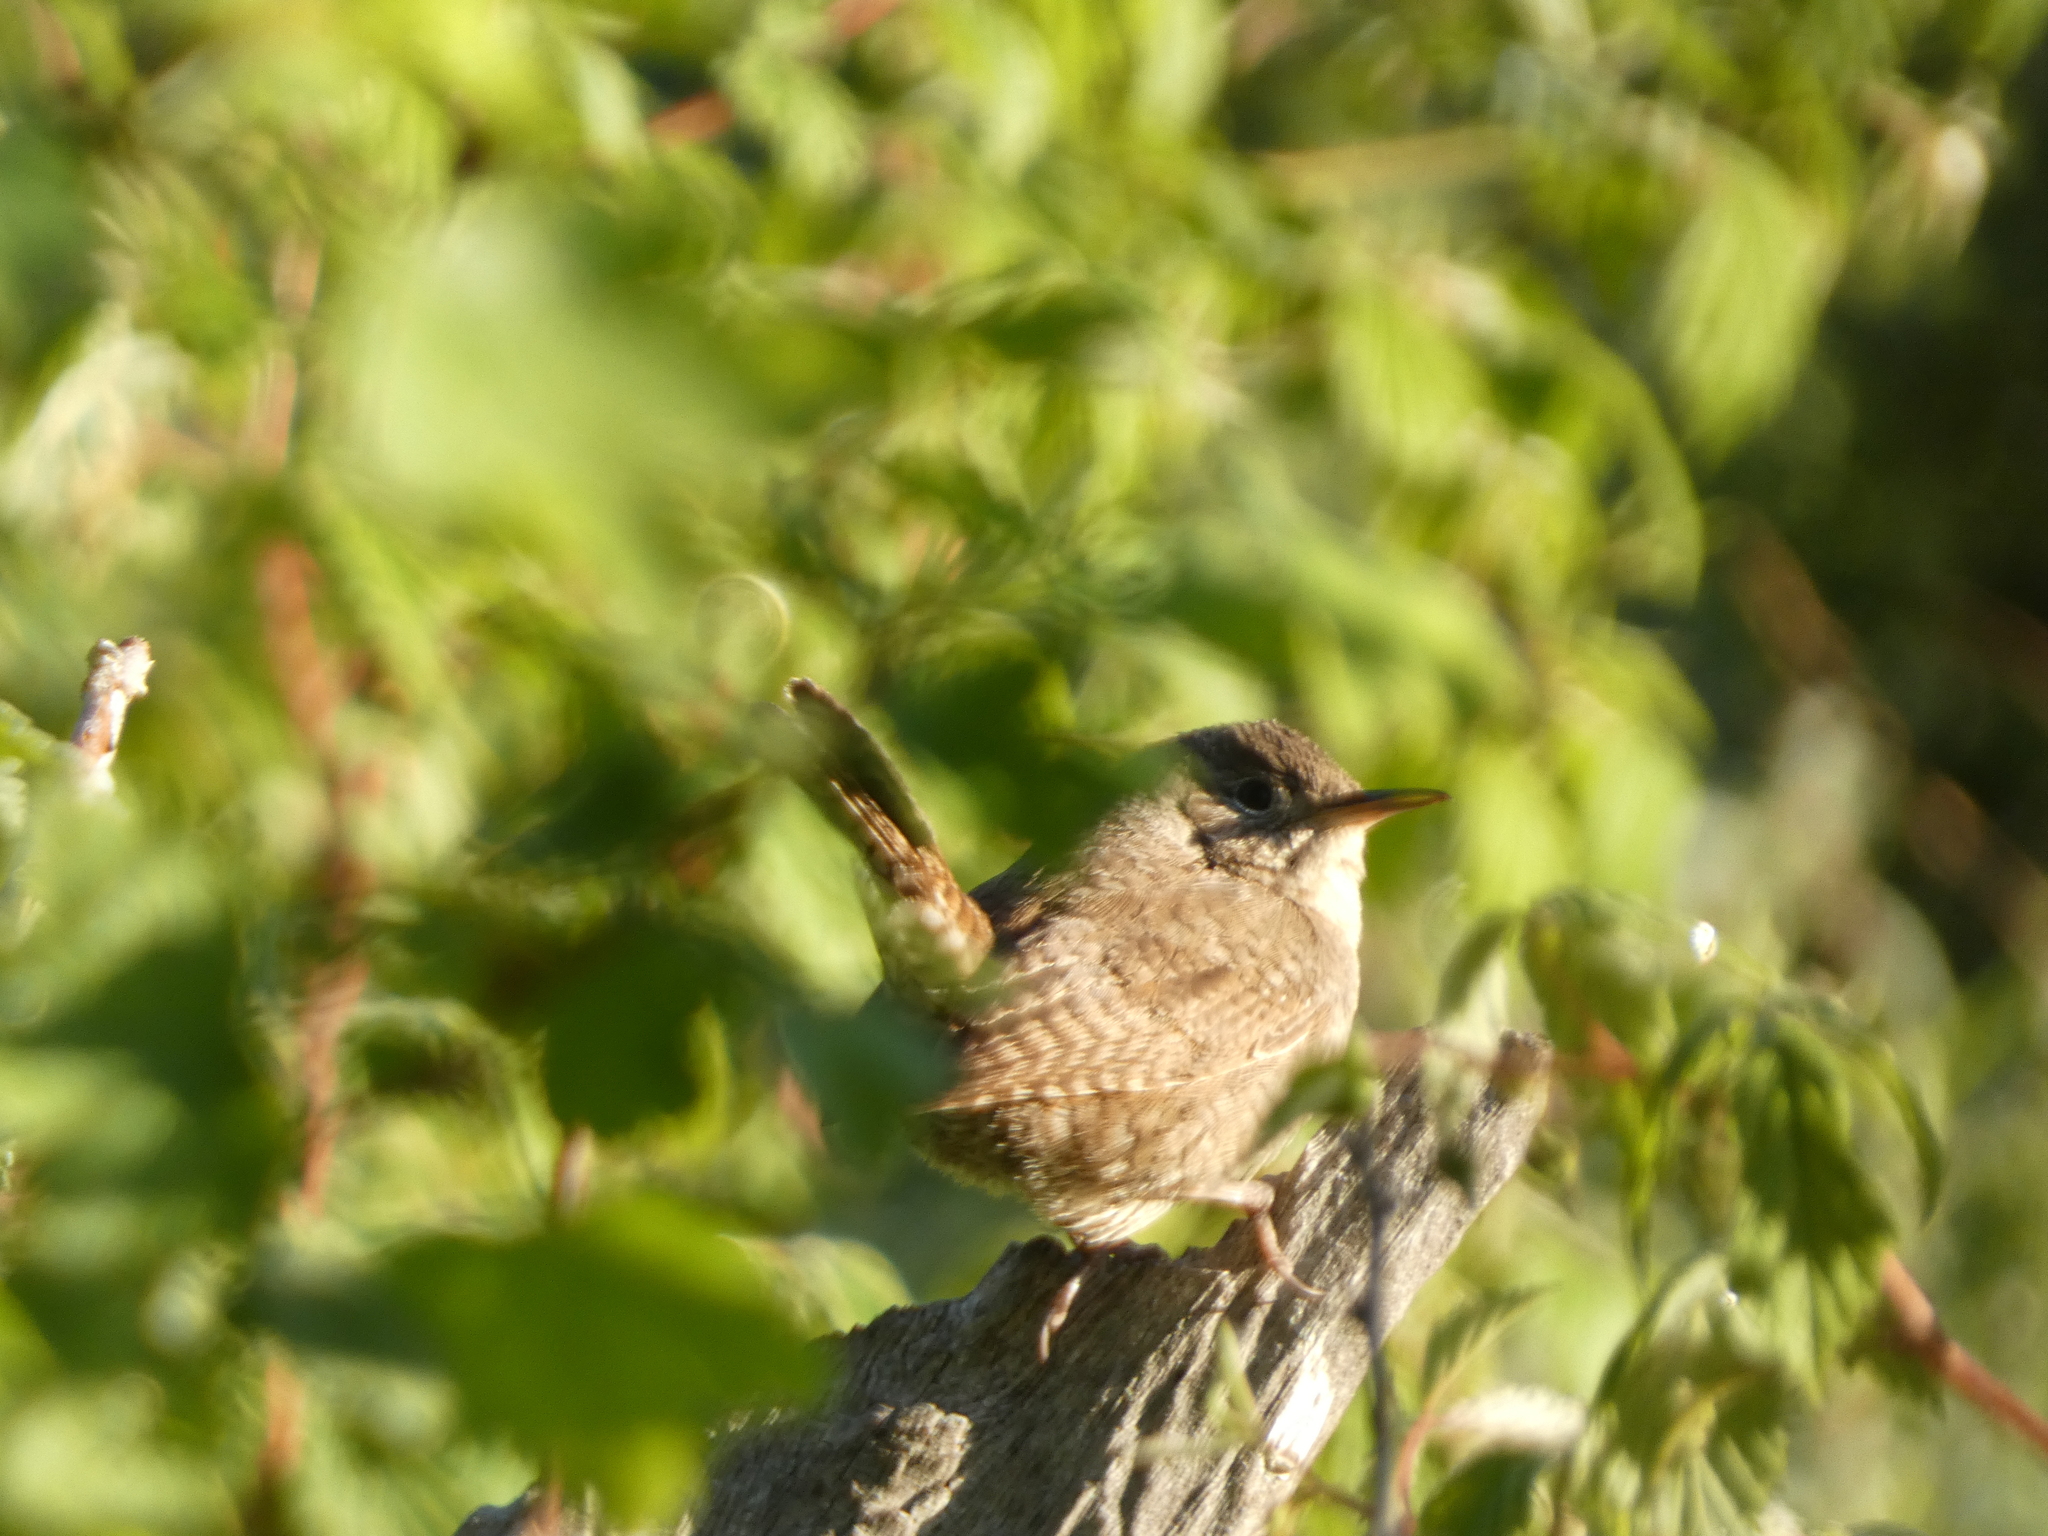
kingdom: Animalia
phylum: Chordata
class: Aves
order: Passeriformes
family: Troglodytidae
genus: Troglodytes
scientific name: Troglodytes aedon
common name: House wren
